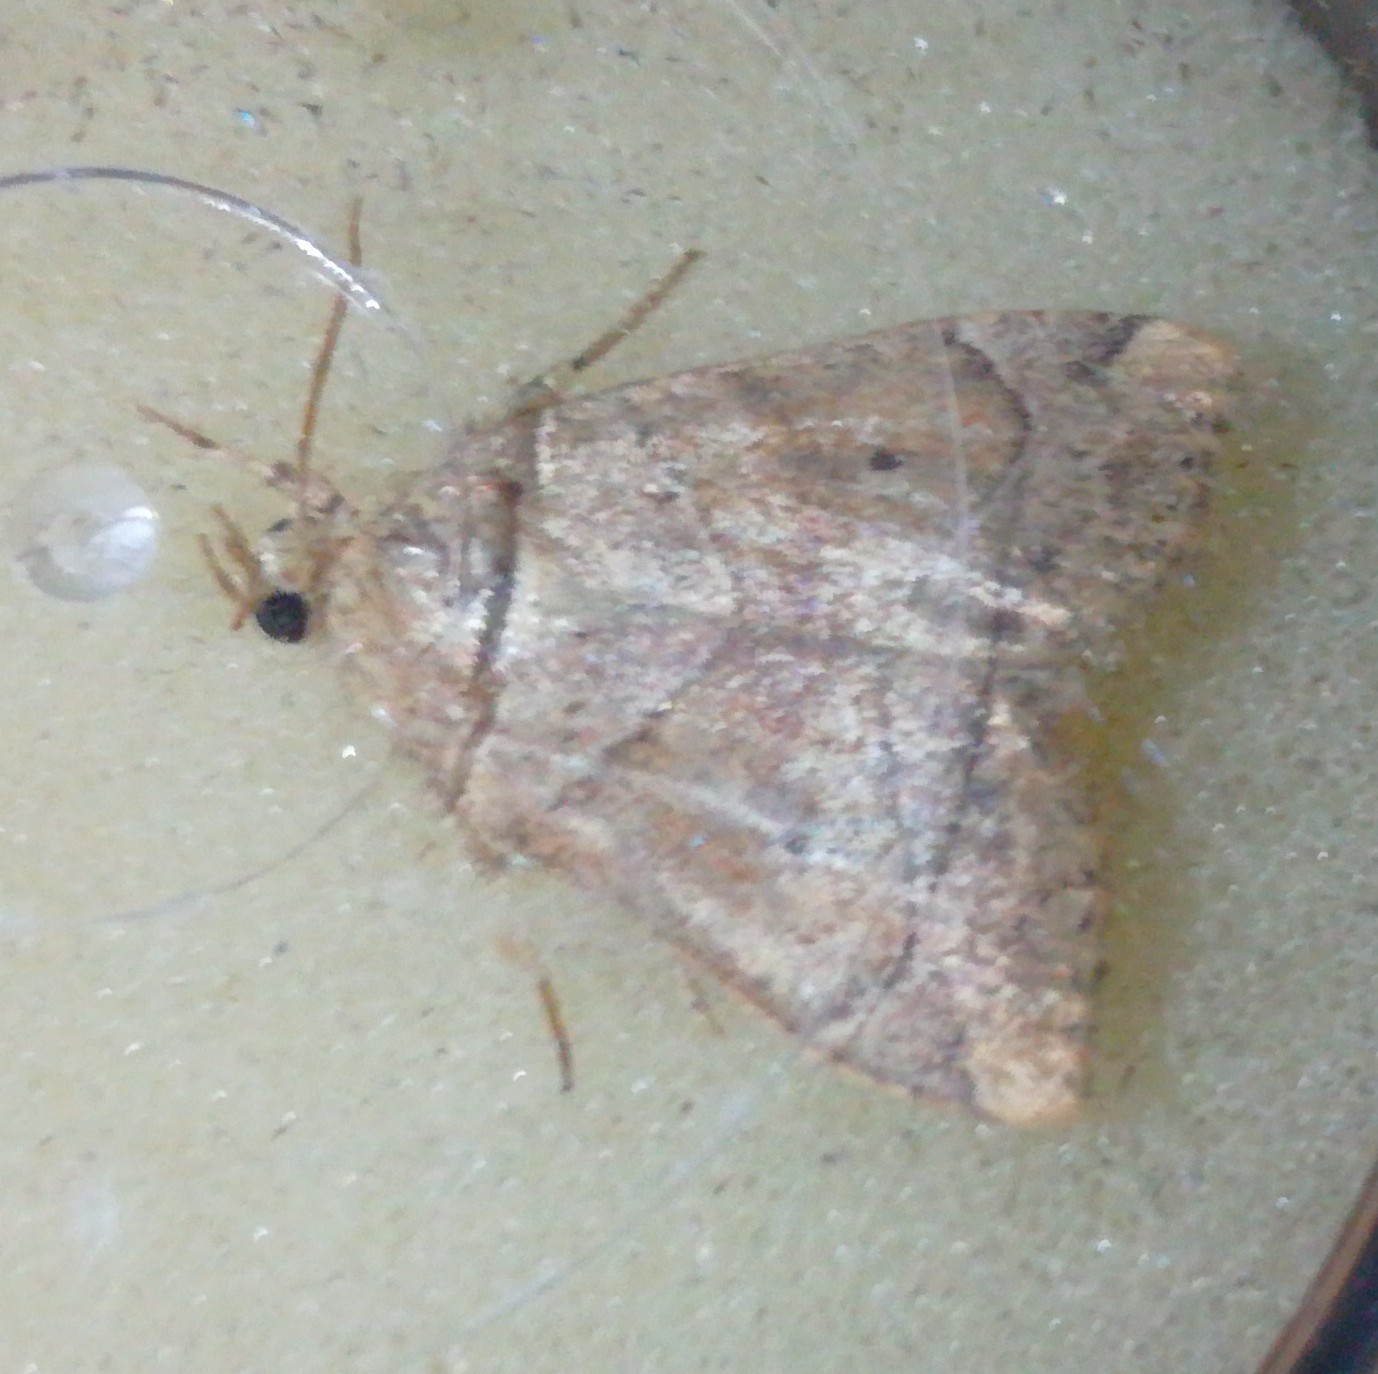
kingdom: Animalia
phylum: Arthropoda
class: Insecta
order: Lepidoptera
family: Noctuidae
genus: Cosmia
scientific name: Cosmia trapezina
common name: Dun-bar
